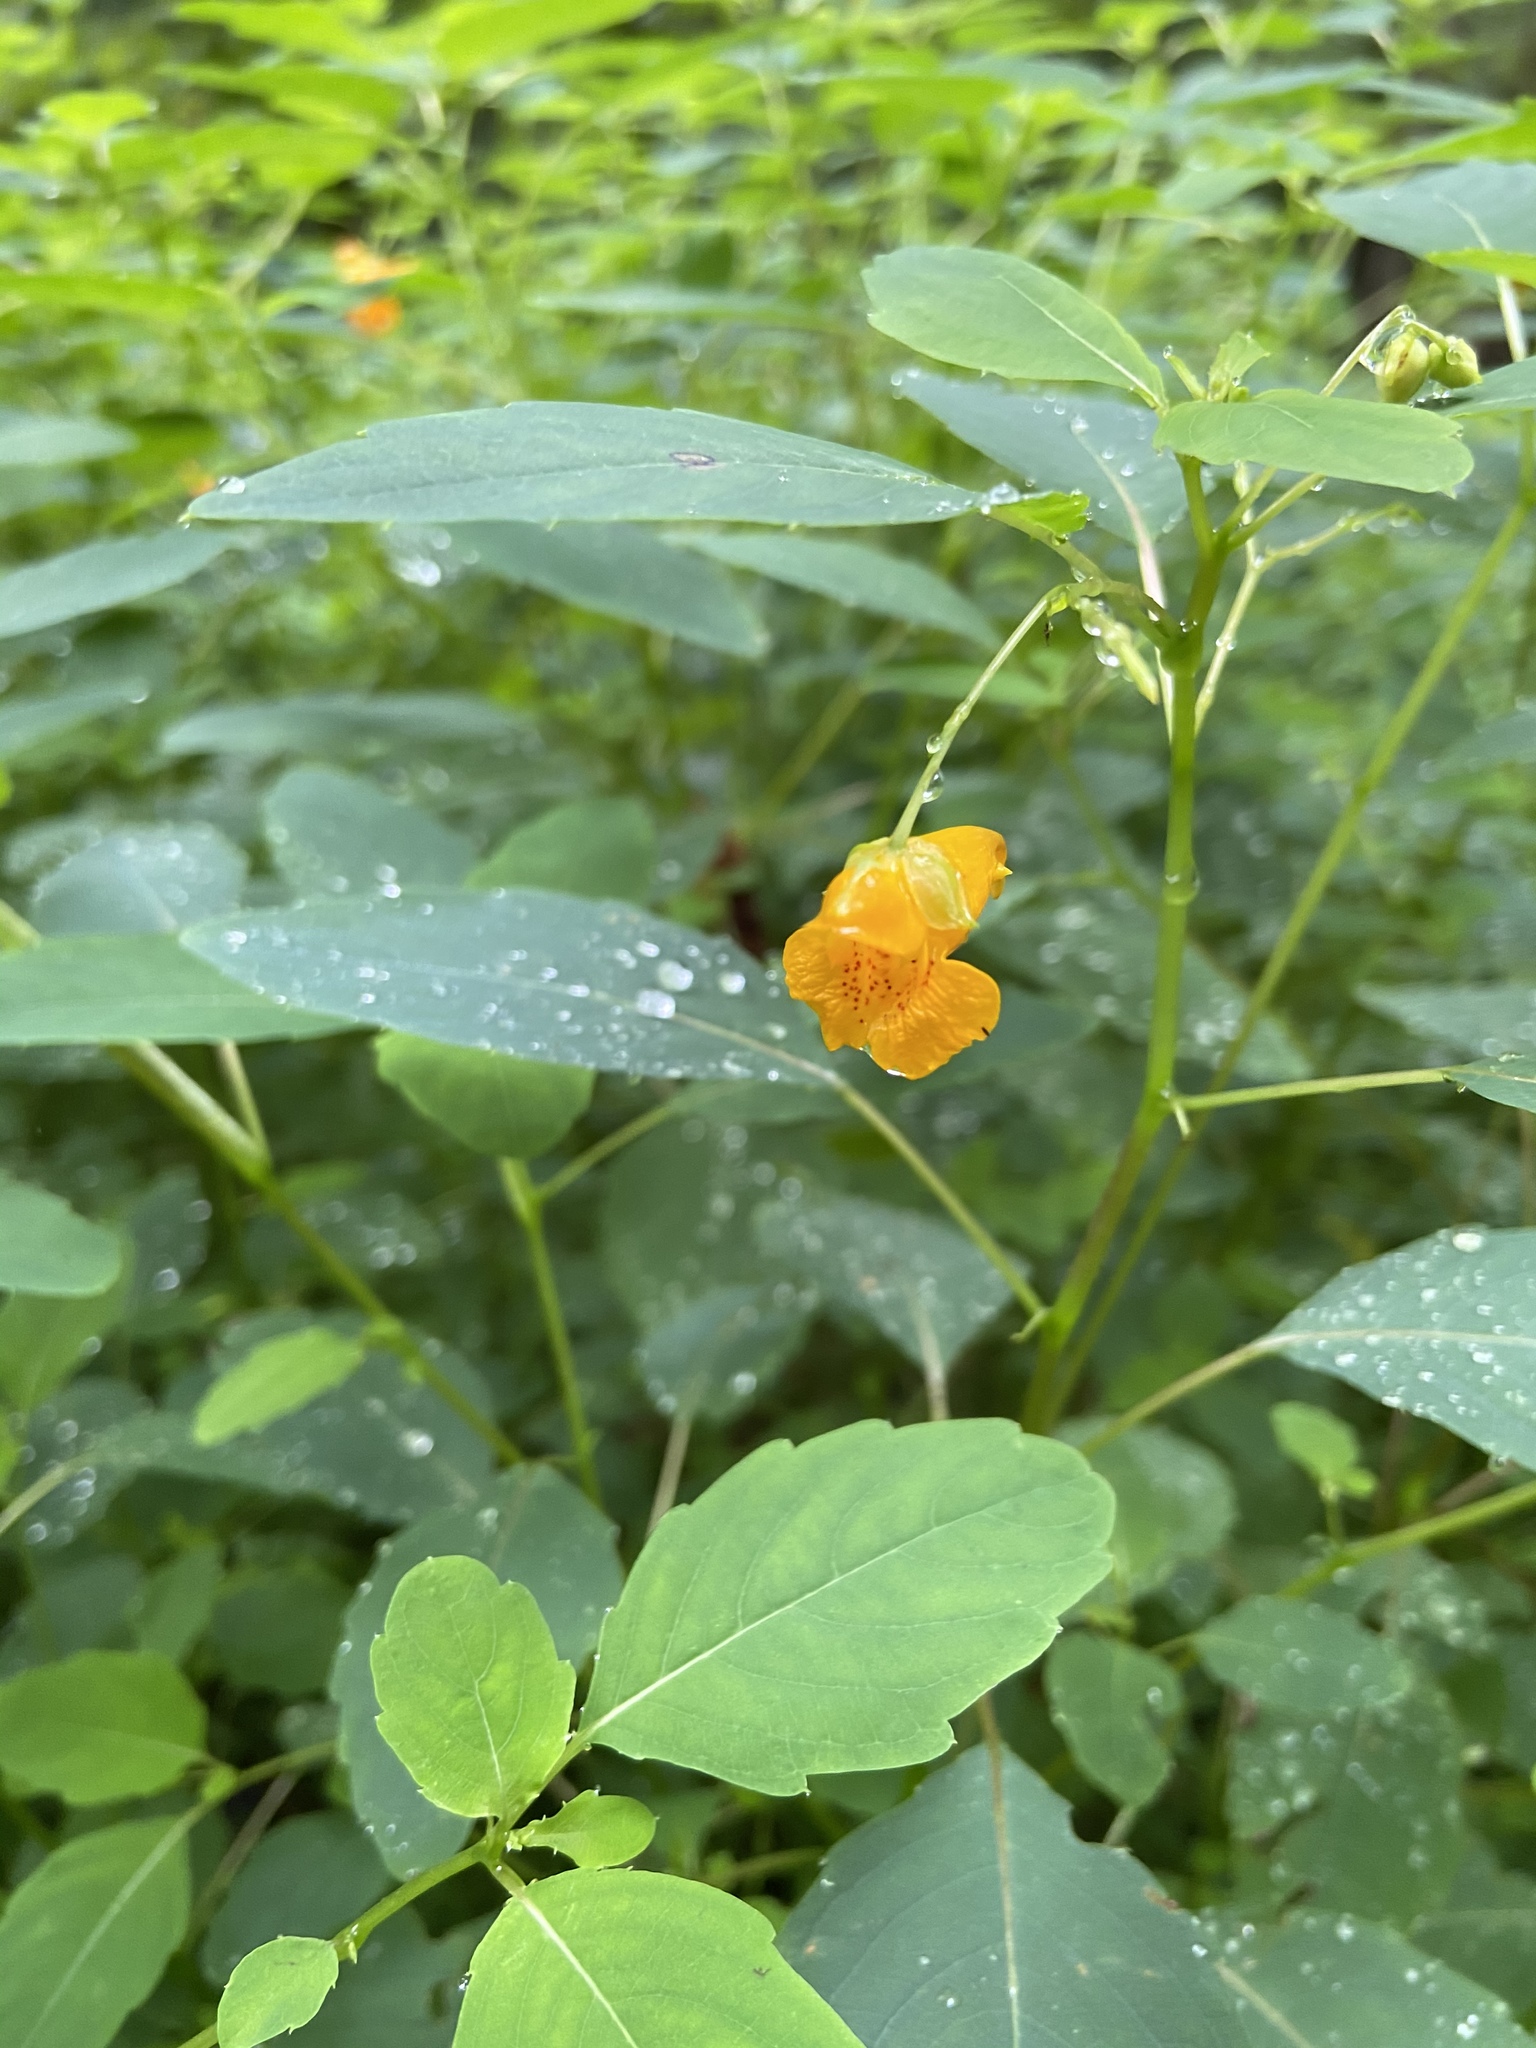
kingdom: Plantae
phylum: Tracheophyta
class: Magnoliopsida
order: Ericales
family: Balsaminaceae
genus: Impatiens
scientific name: Impatiens capensis
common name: Orange balsam
